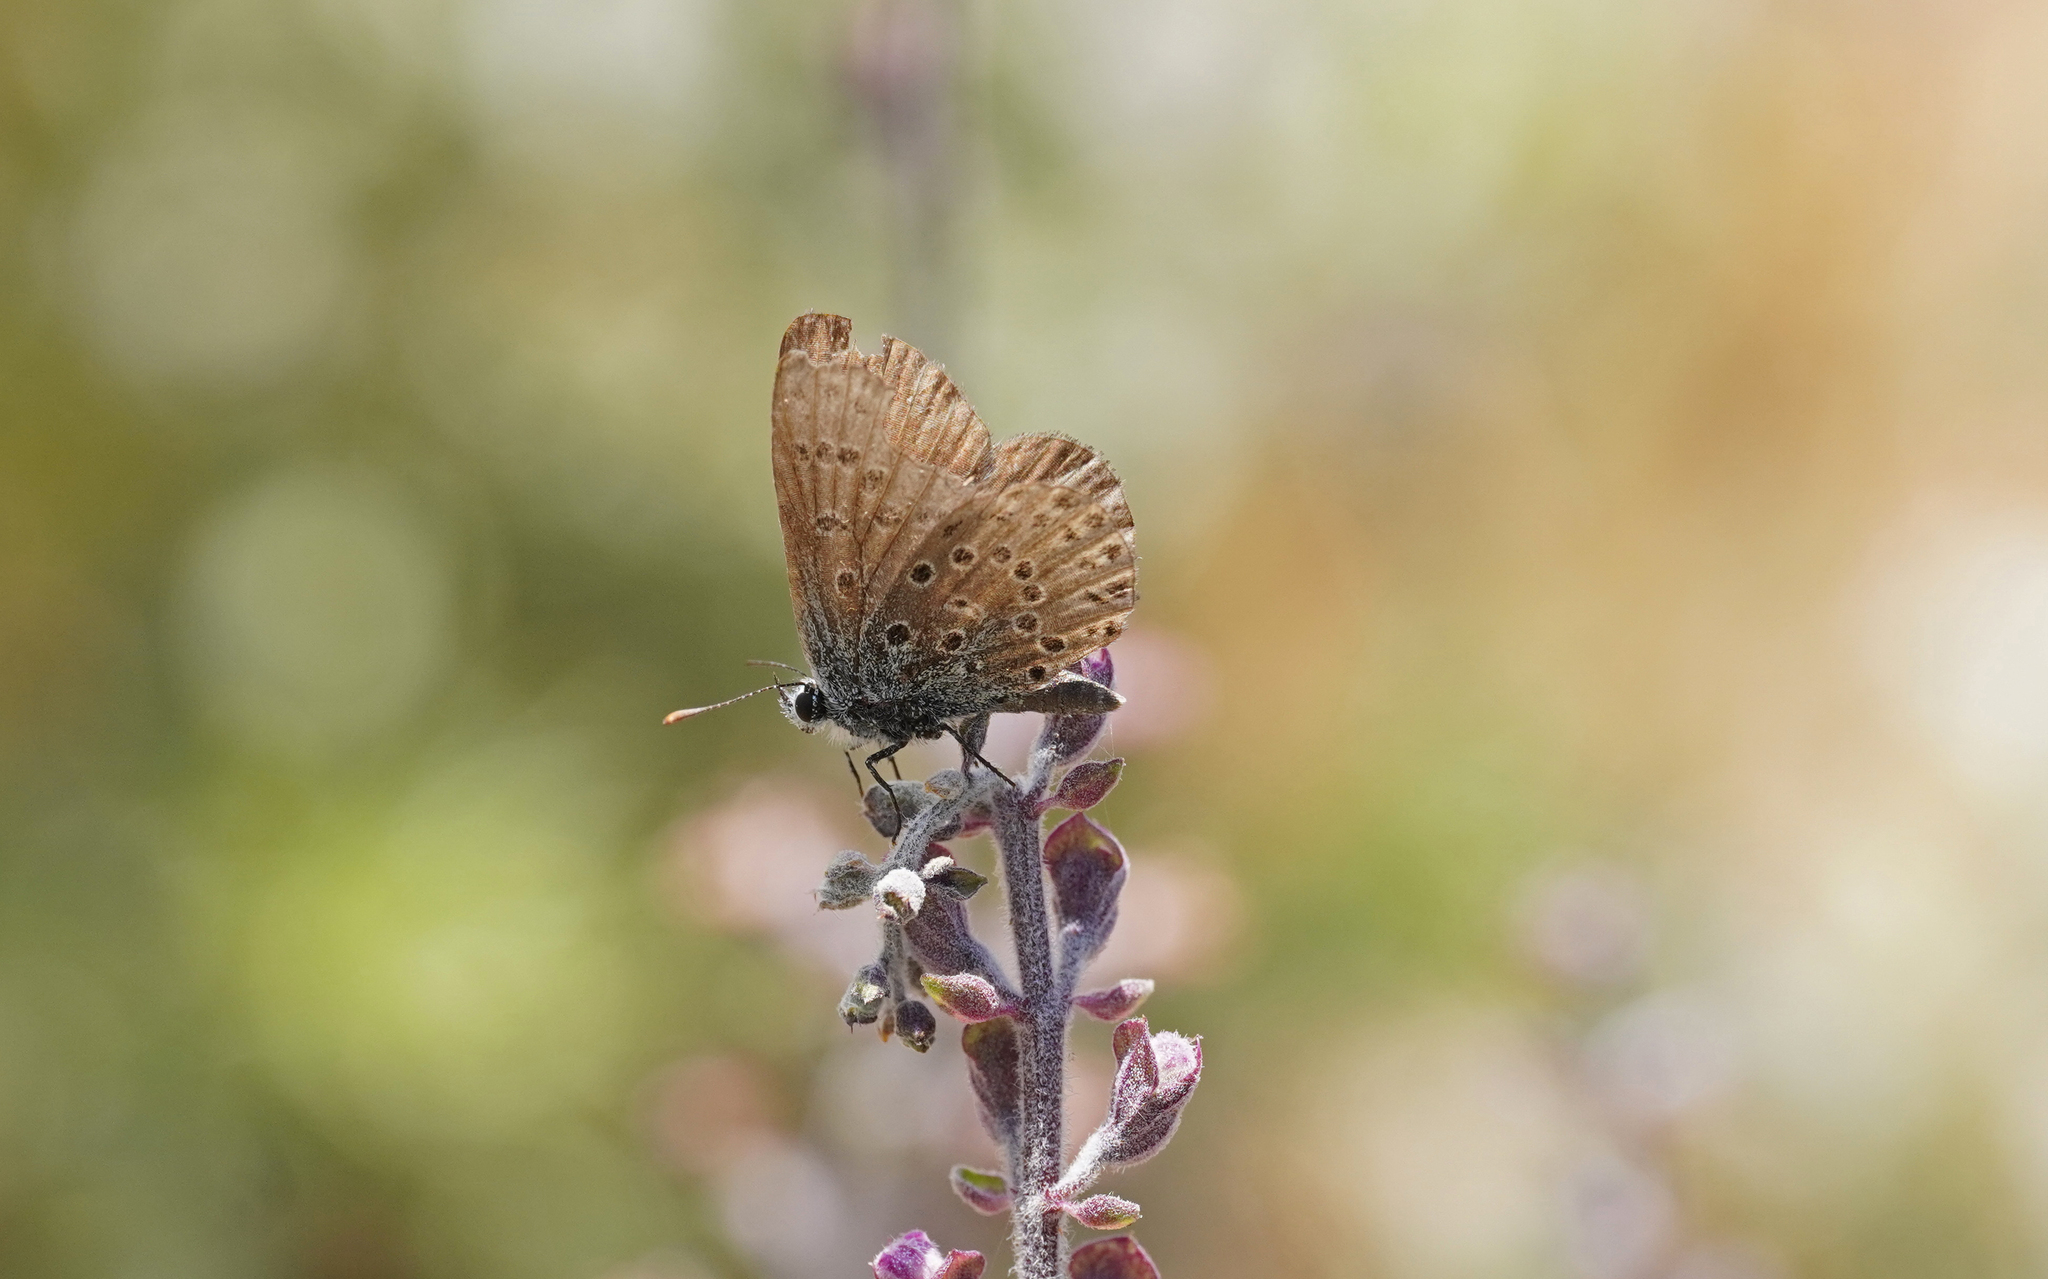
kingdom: Animalia
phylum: Arthropoda
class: Insecta
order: Lepidoptera
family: Lycaenidae
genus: Pseudophilotes
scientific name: Pseudophilotes barbagiae
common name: Sardinian blue
